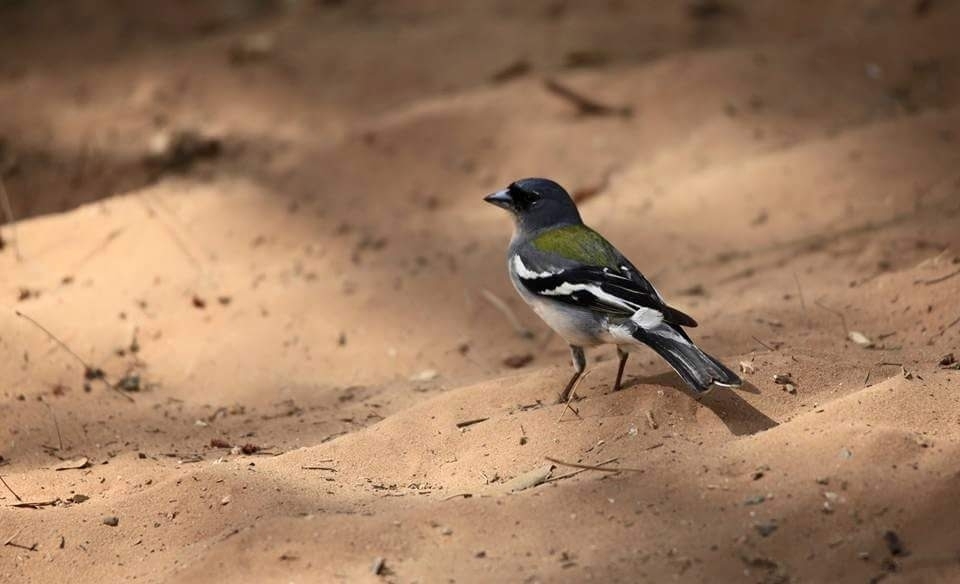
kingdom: Animalia
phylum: Chordata
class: Aves
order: Passeriformes
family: Fringillidae
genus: Fringilla
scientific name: Fringilla spodiogenys
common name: African chaffinch
